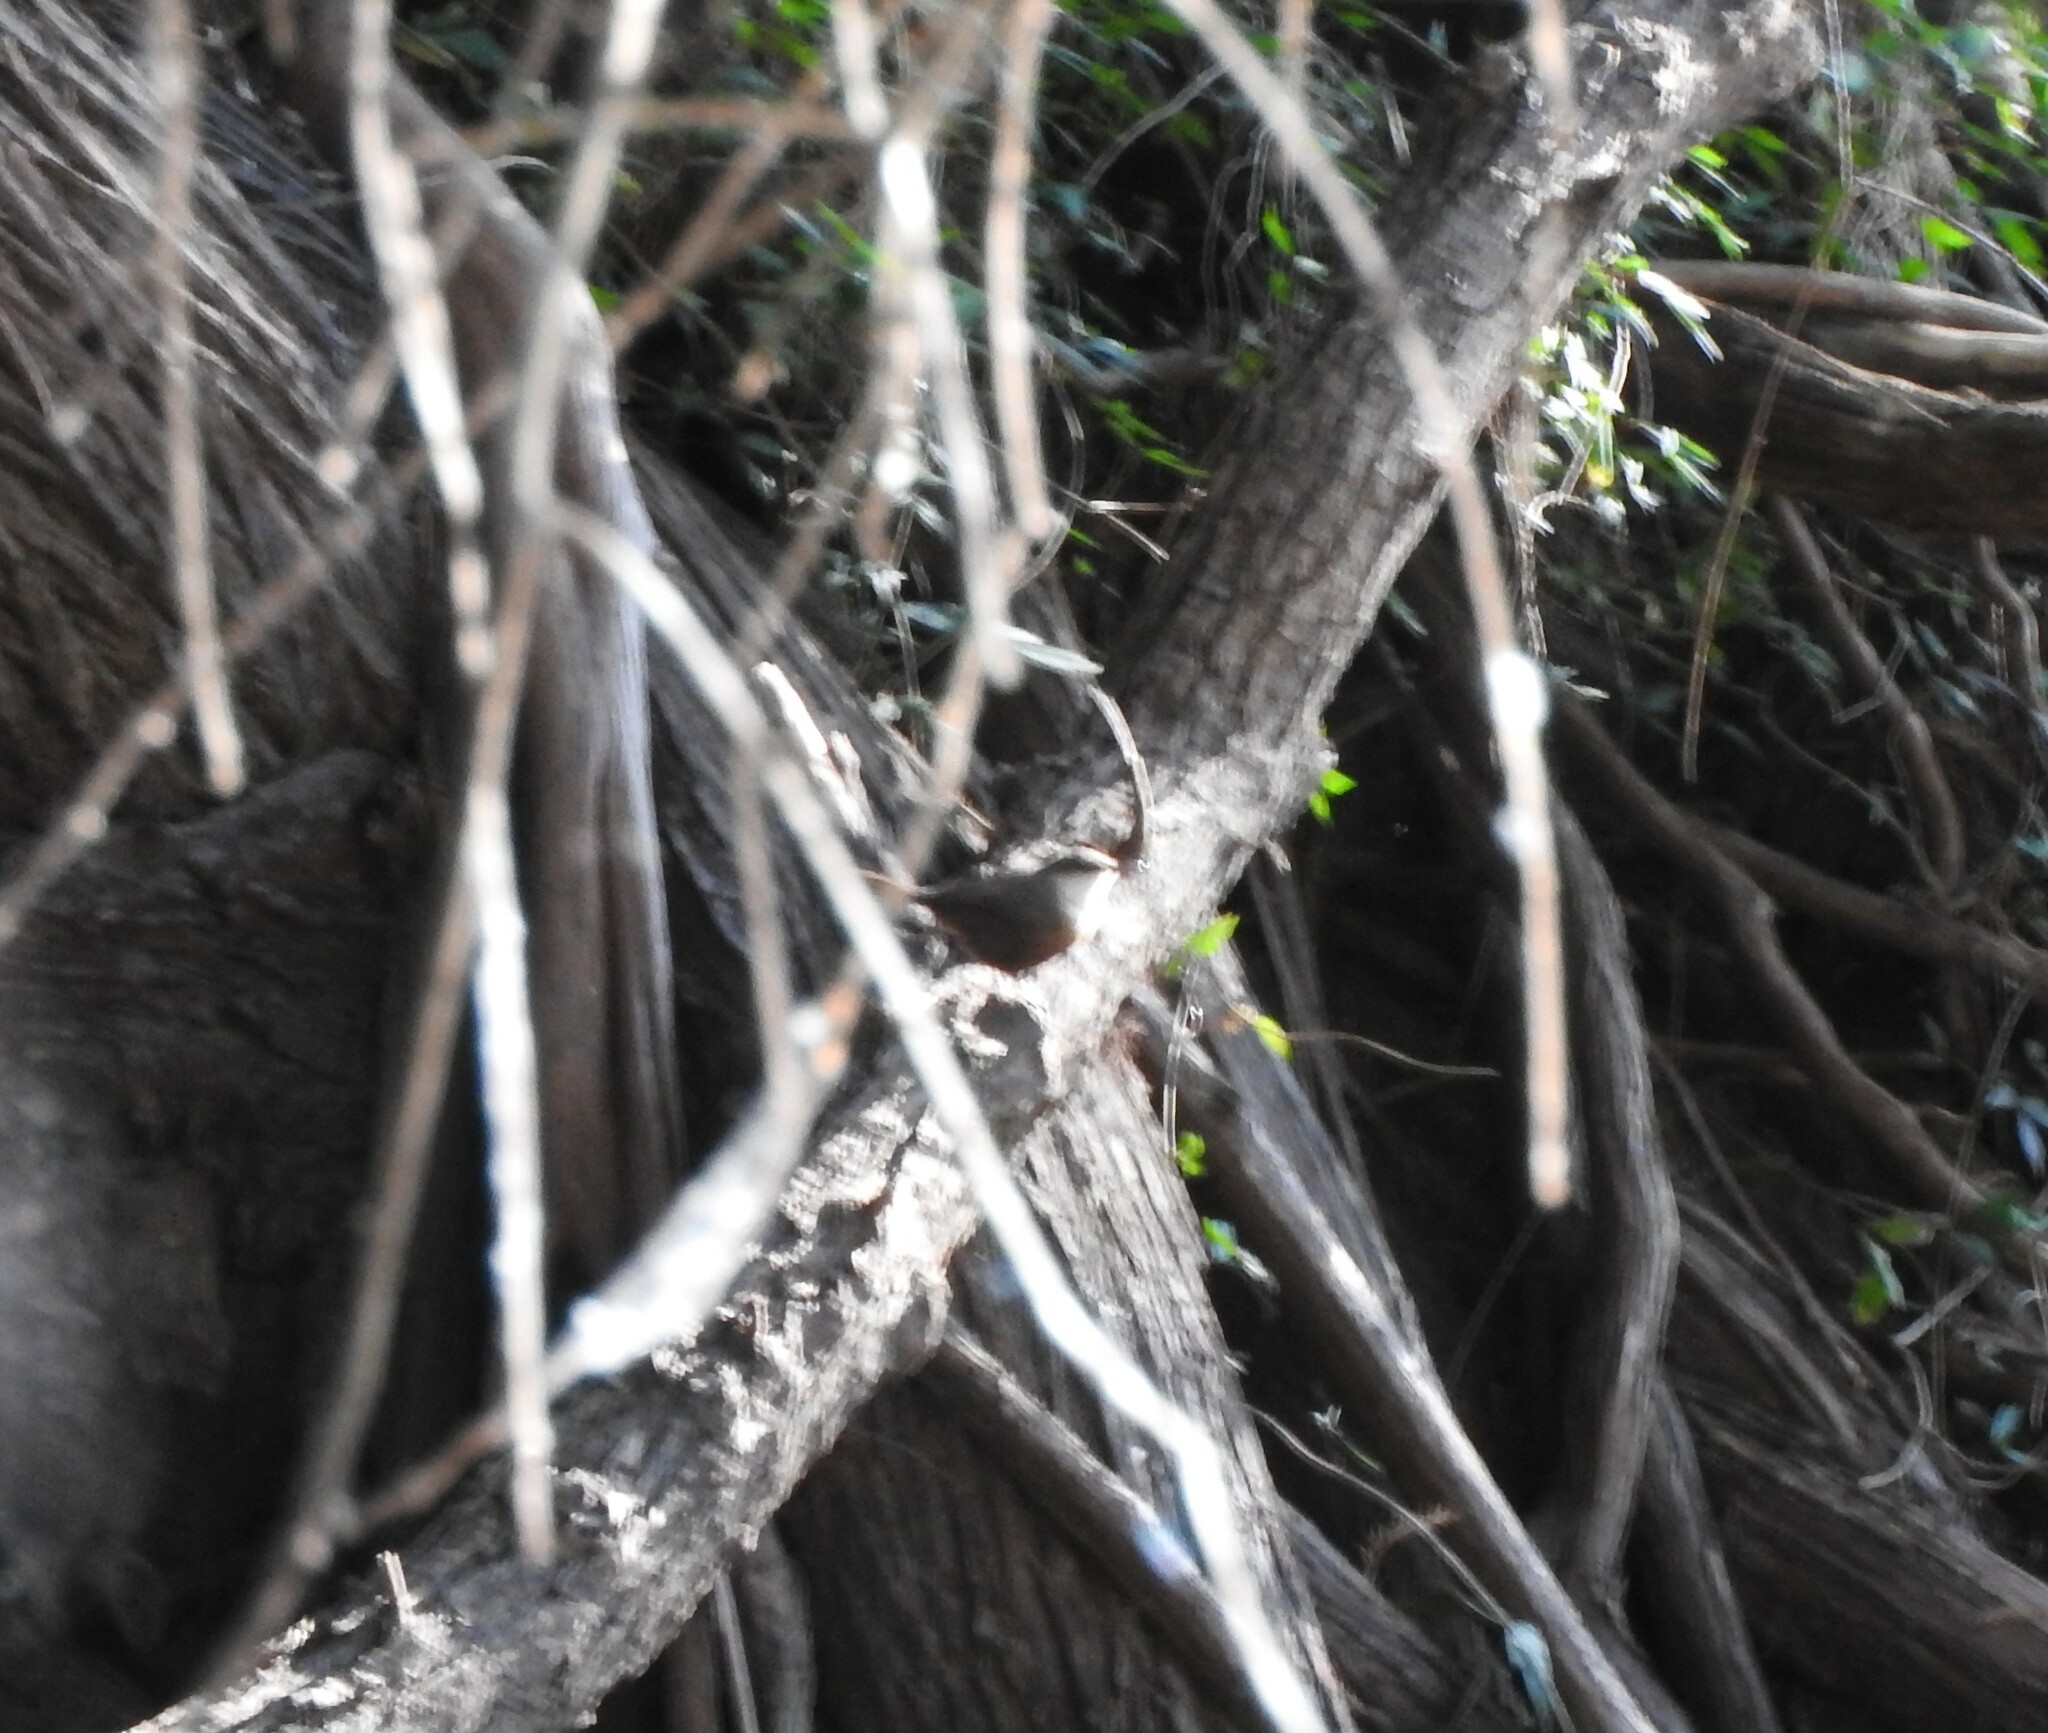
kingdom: Animalia
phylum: Chordata
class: Aves
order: Passeriformes
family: Troglodytidae
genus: Catherpes
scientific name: Catherpes mexicanus
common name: Canyon wren
